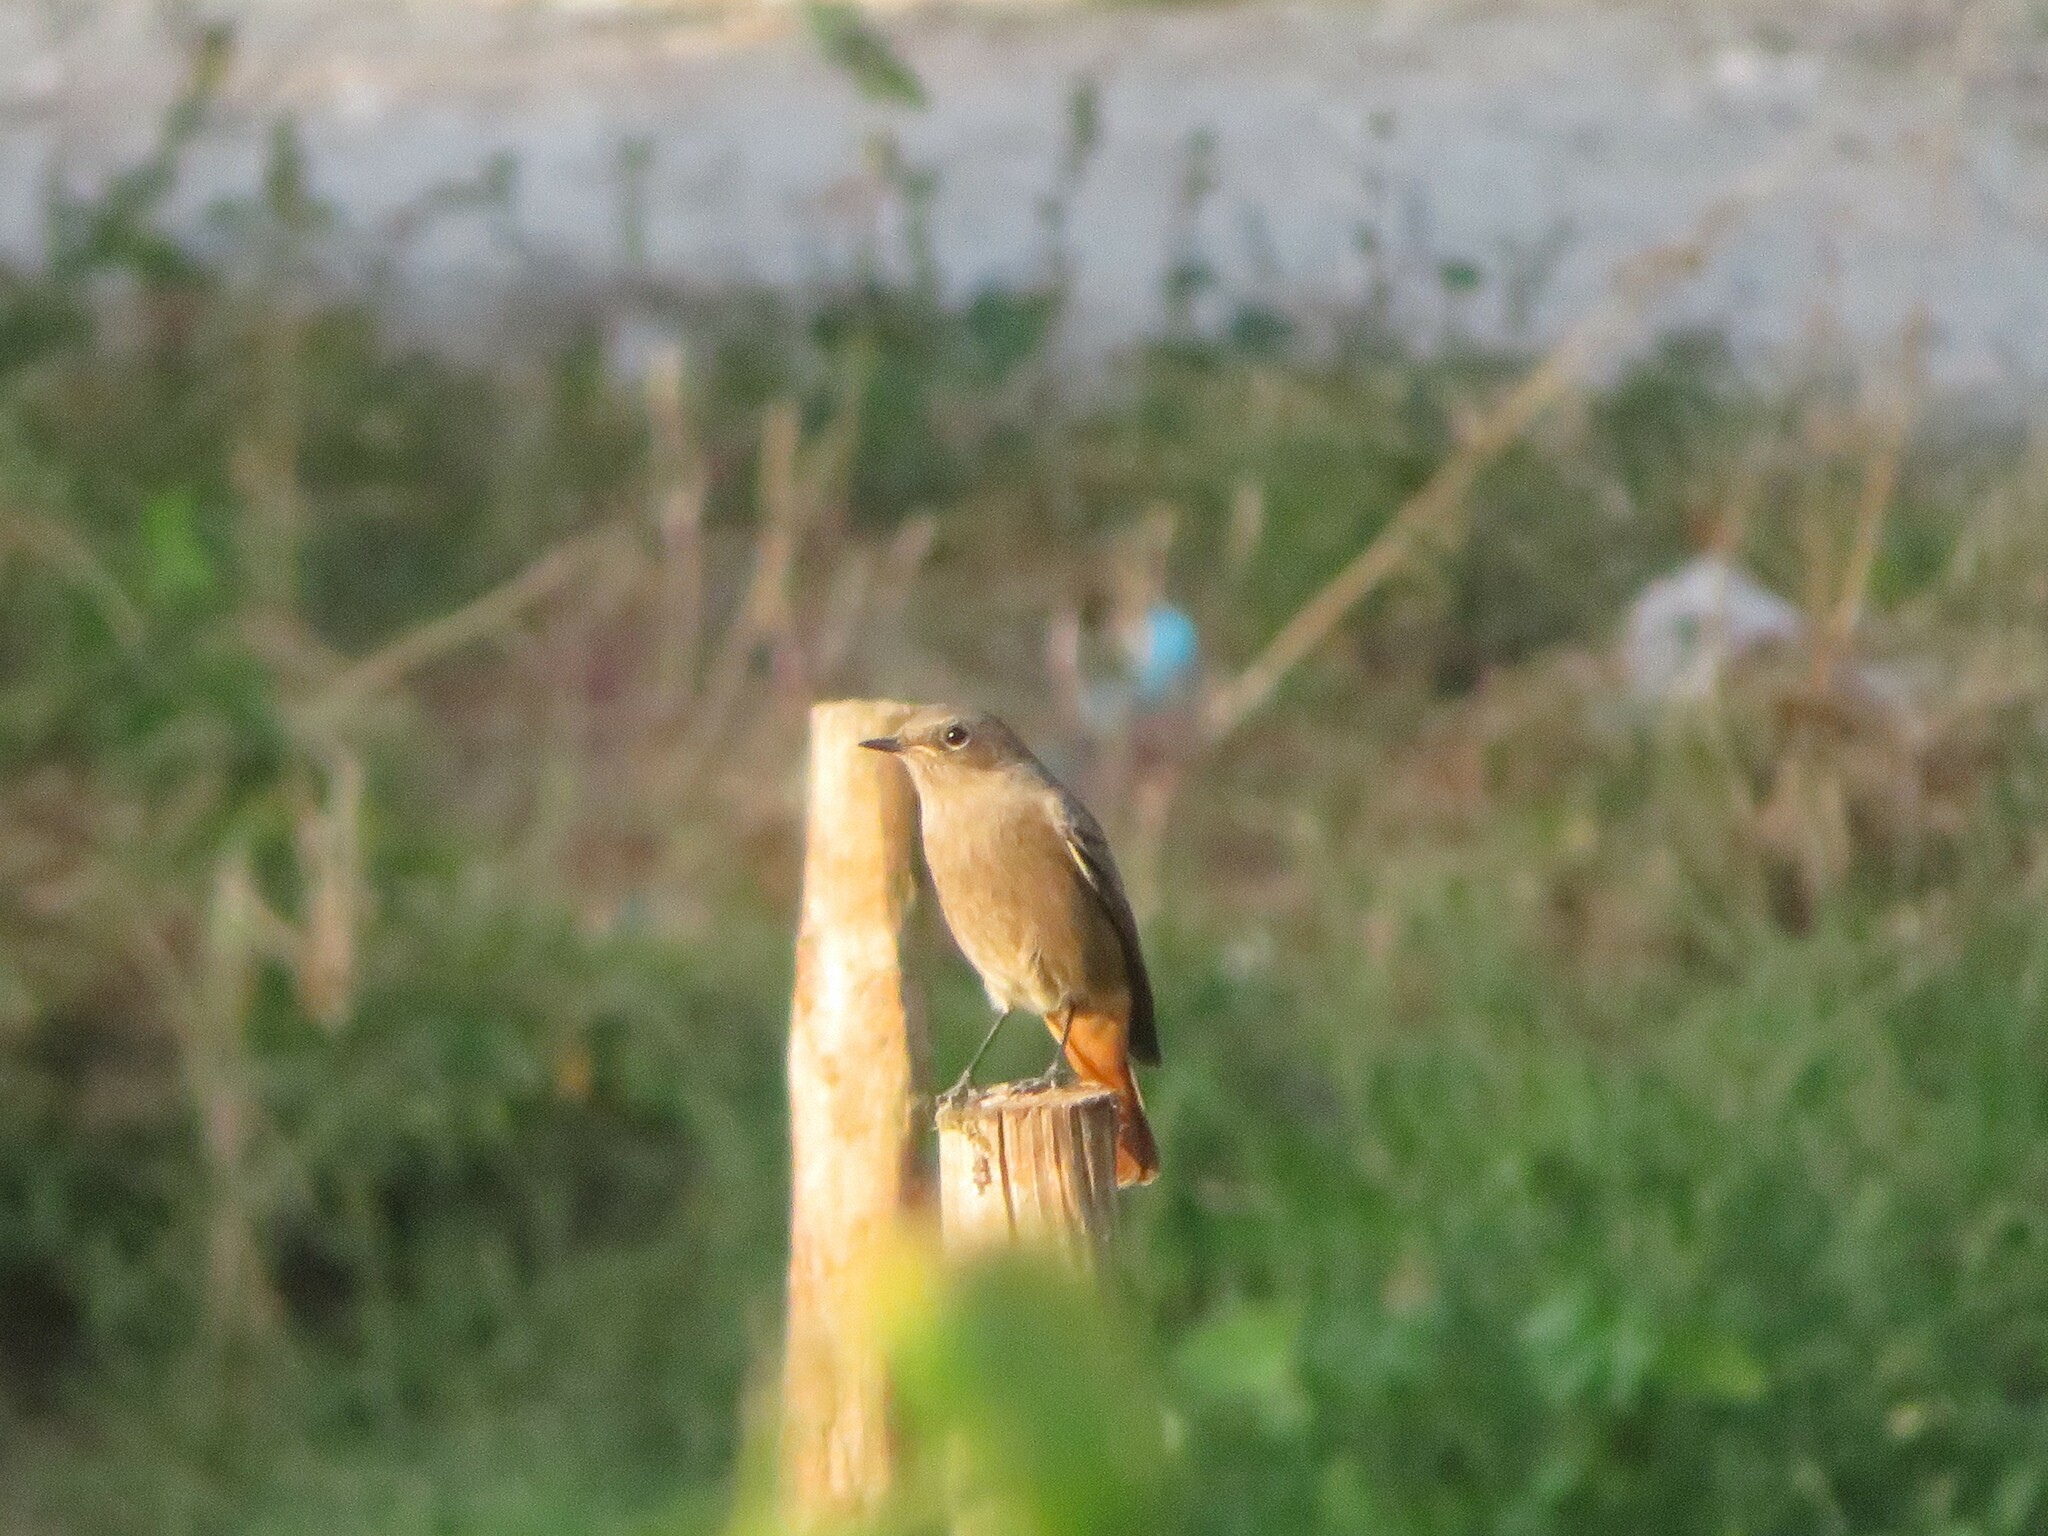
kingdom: Animalia
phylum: Chordata
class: Aves
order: Passeriformes
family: Muscicapidae
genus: Phoenicurus
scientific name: Phoenicurus ochruros
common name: Black redstart
